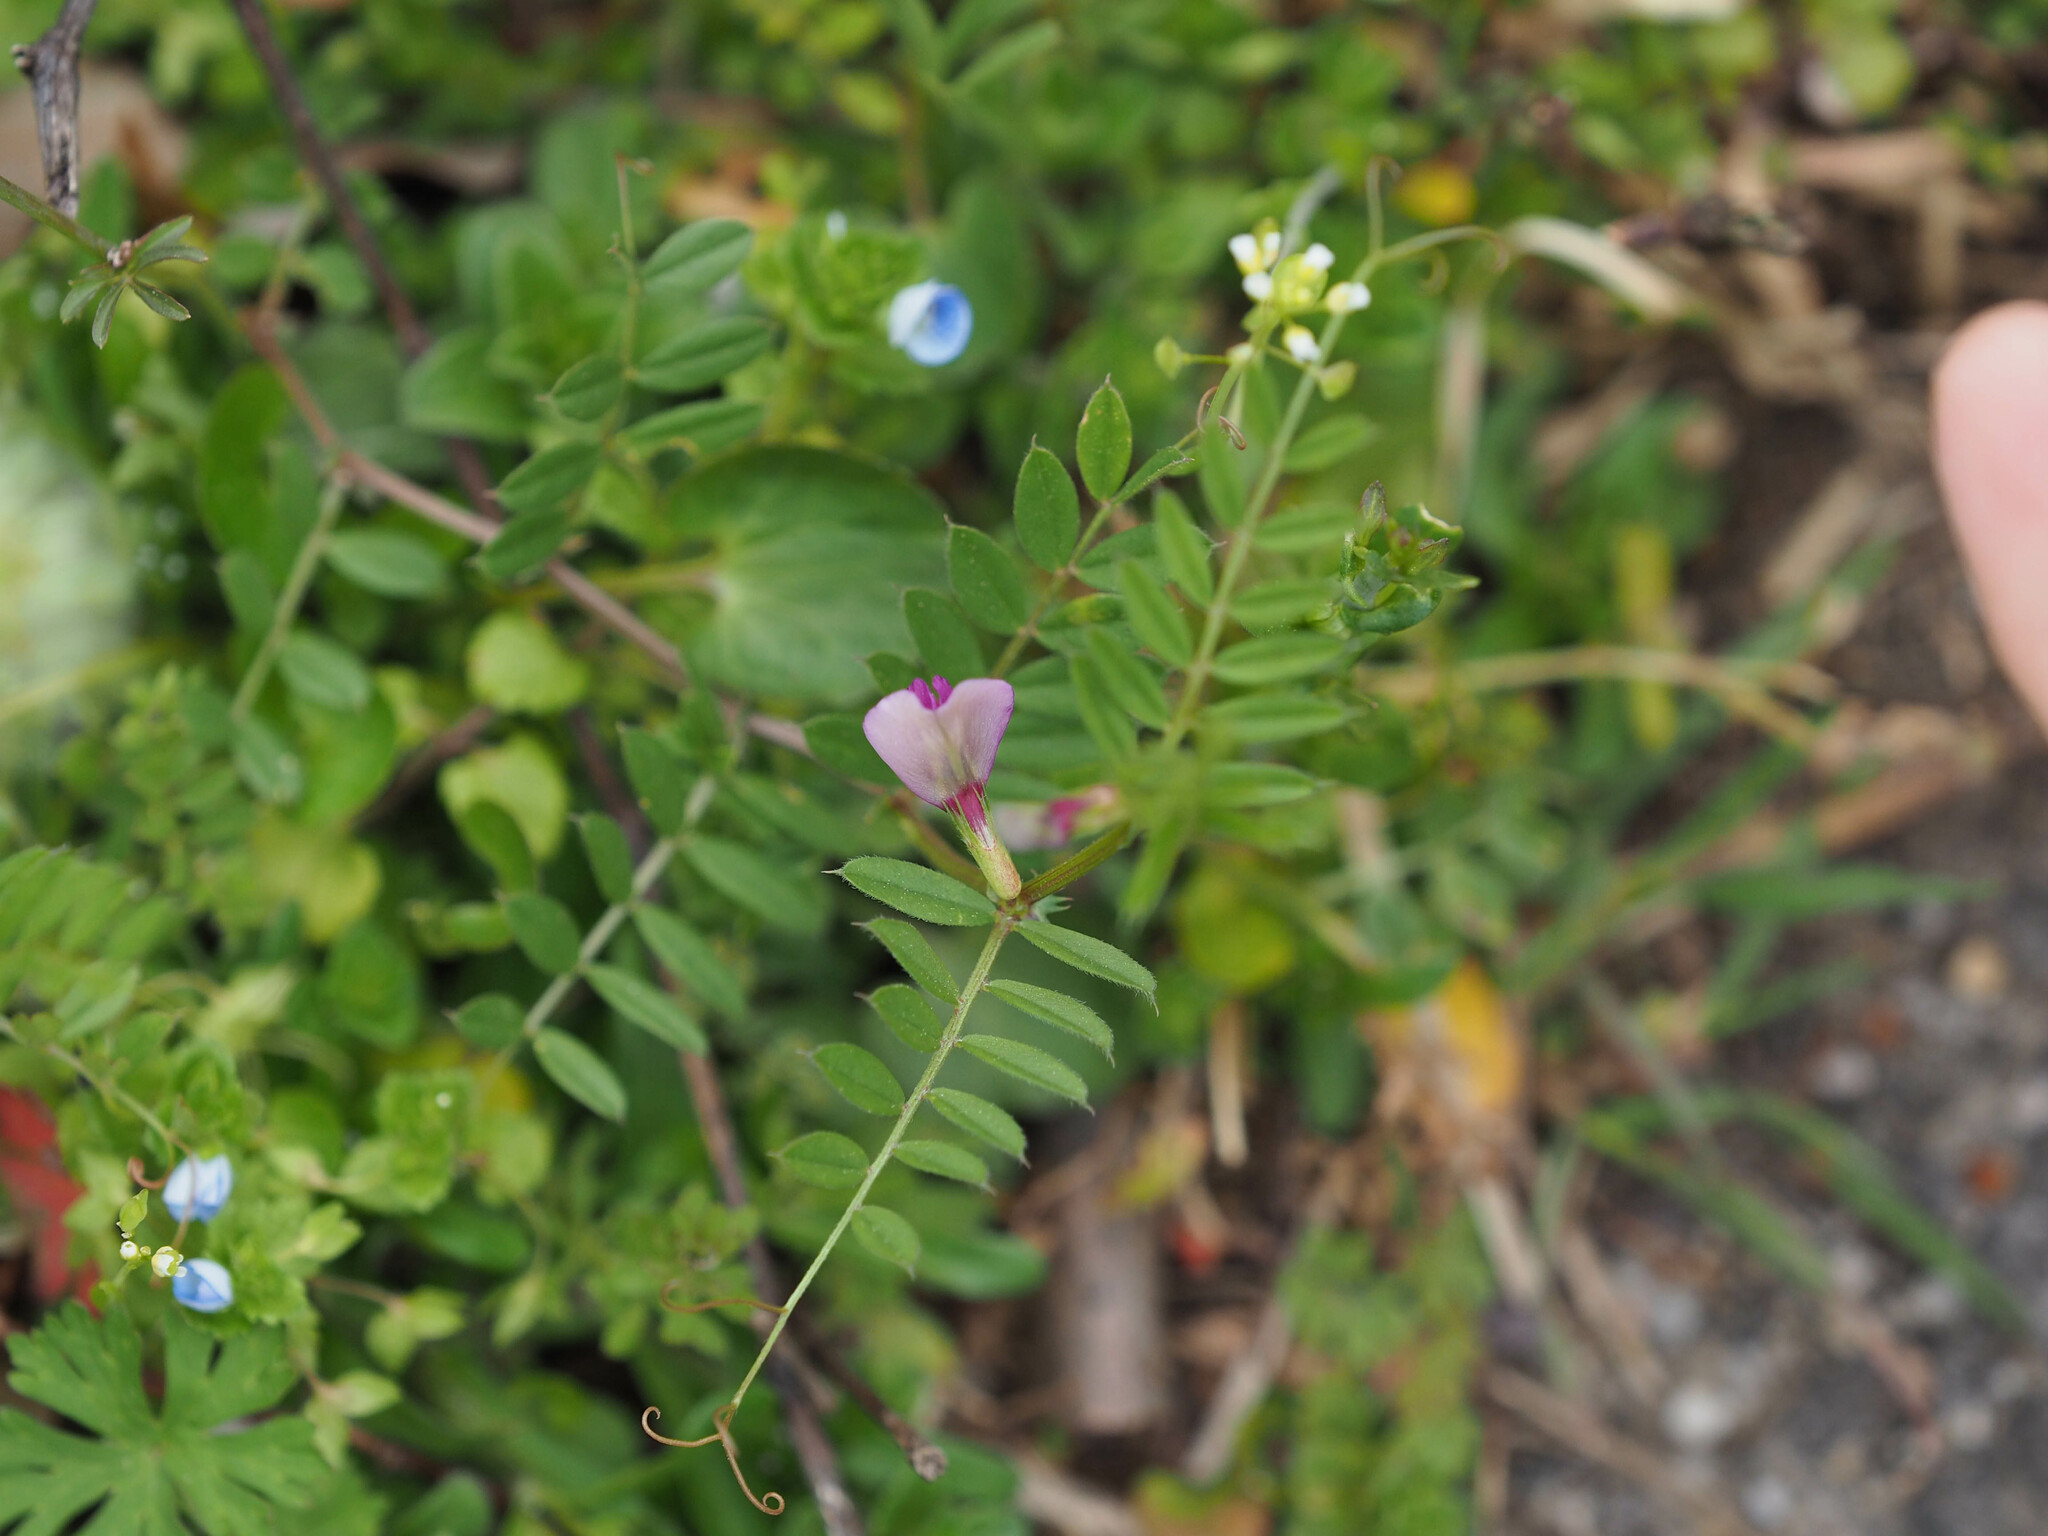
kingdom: Plantae
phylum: Tracheophyta
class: Magnoliopsida
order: Fabales
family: Fabaceae
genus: Vicia
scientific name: Vicia sativa
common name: Garden vetch
